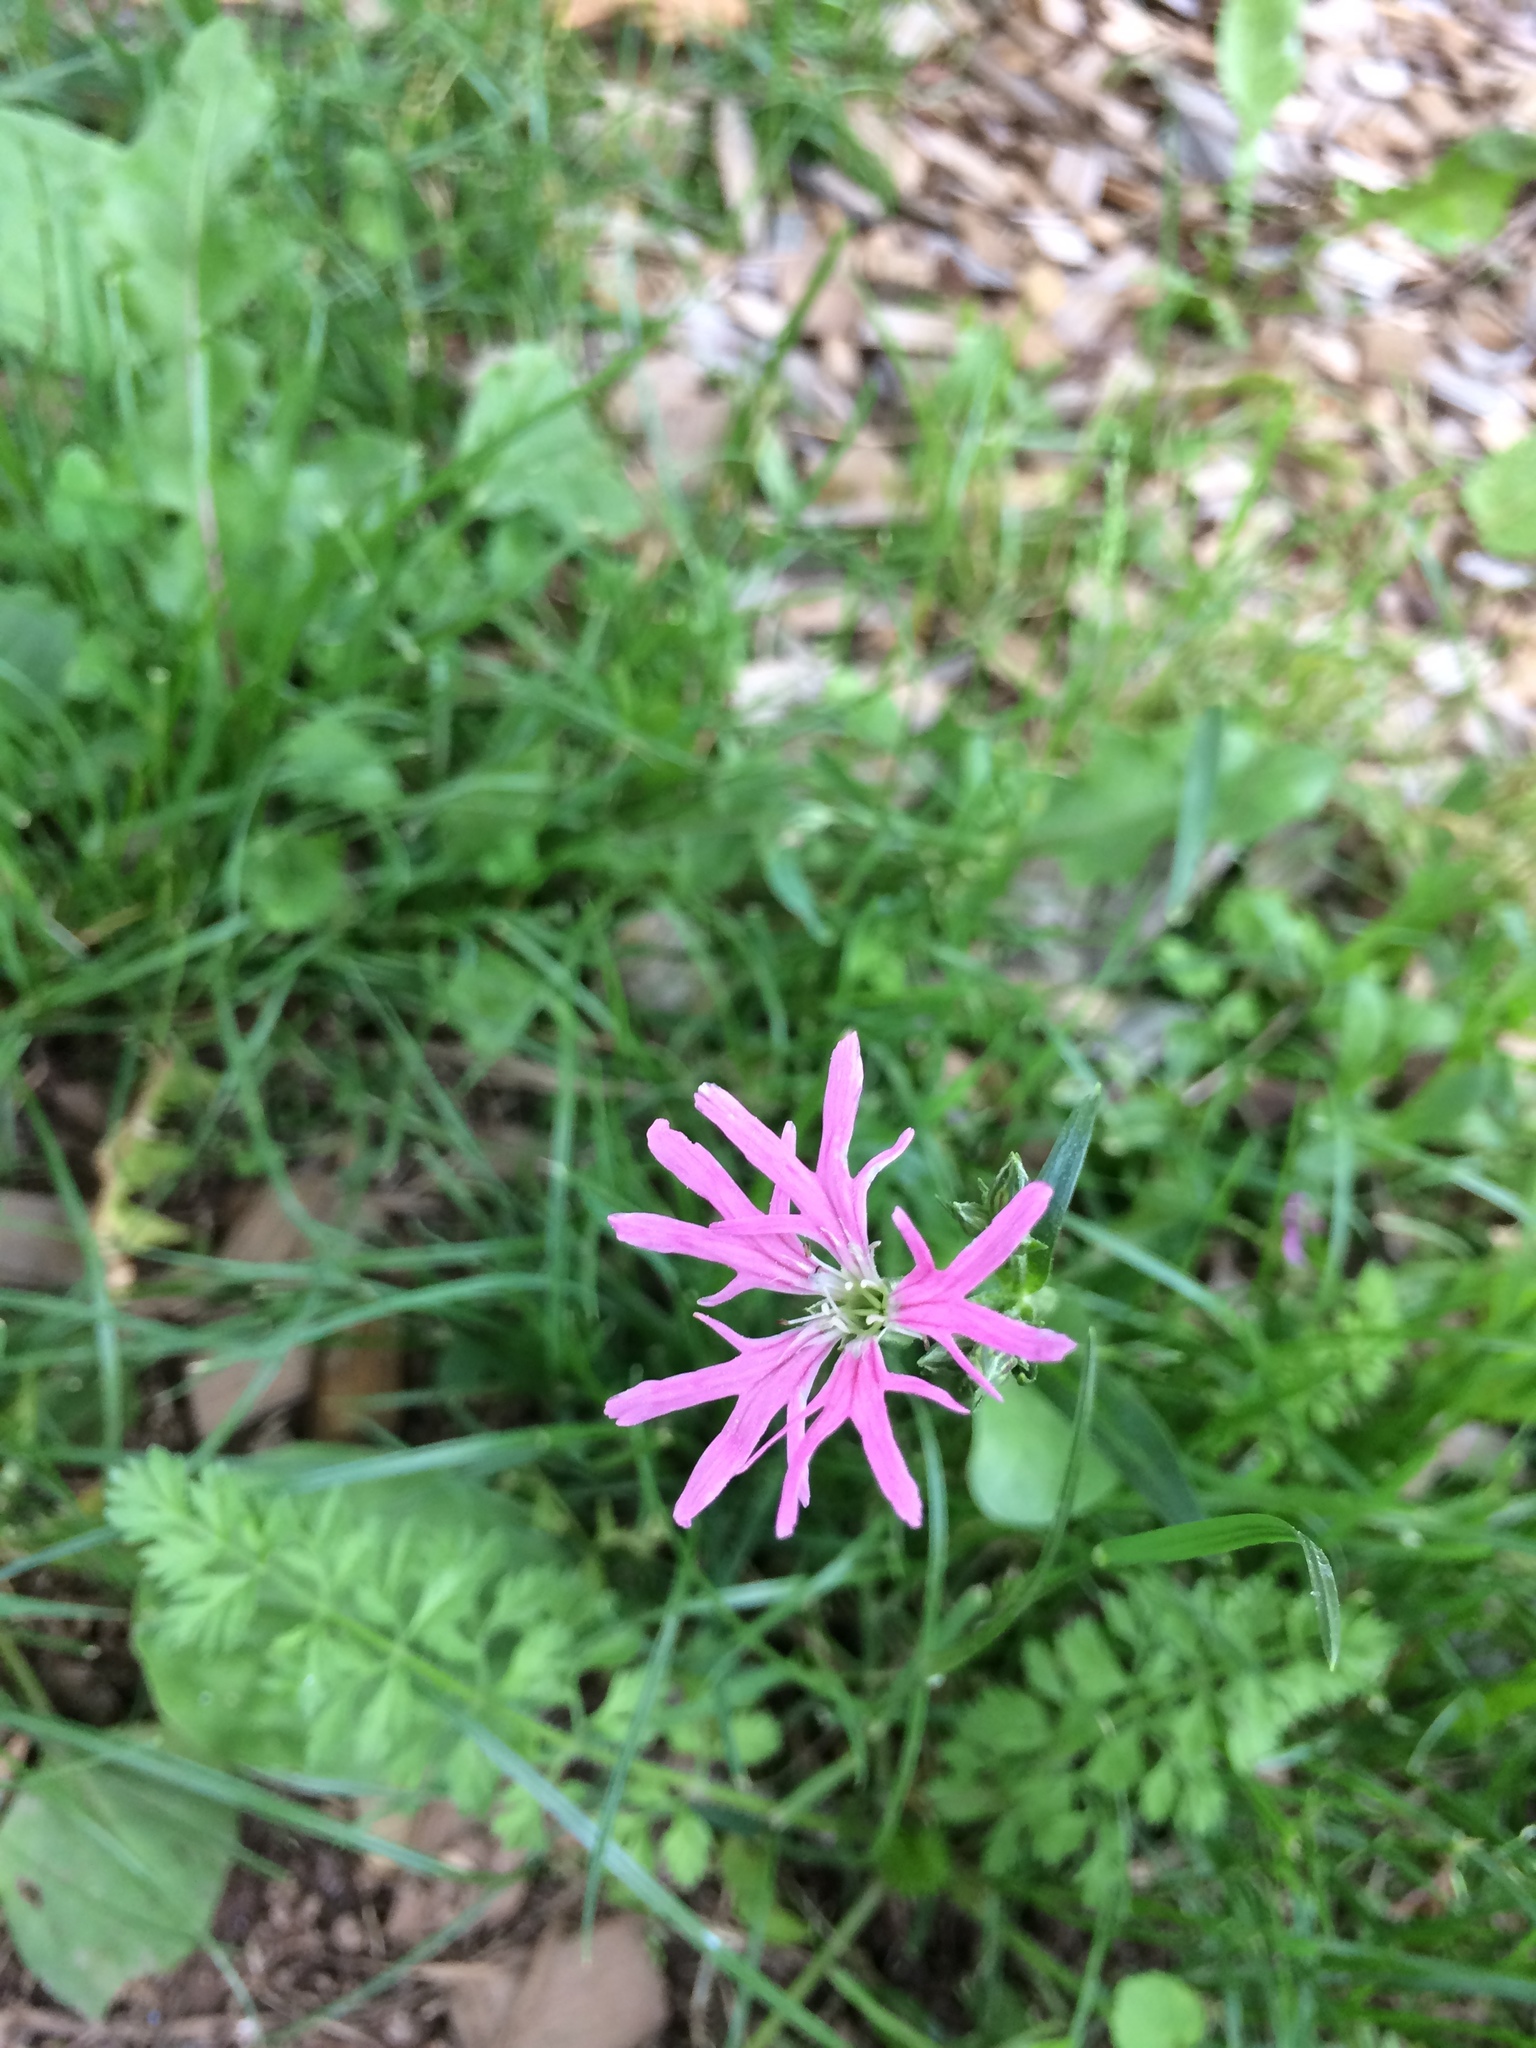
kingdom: Plantae
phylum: Tracheophyta
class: Magnoliopsida
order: Caryophyllales
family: Caryophyllaceae
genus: Silene
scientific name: Silene flos-cuculi
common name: Ragged-robin
